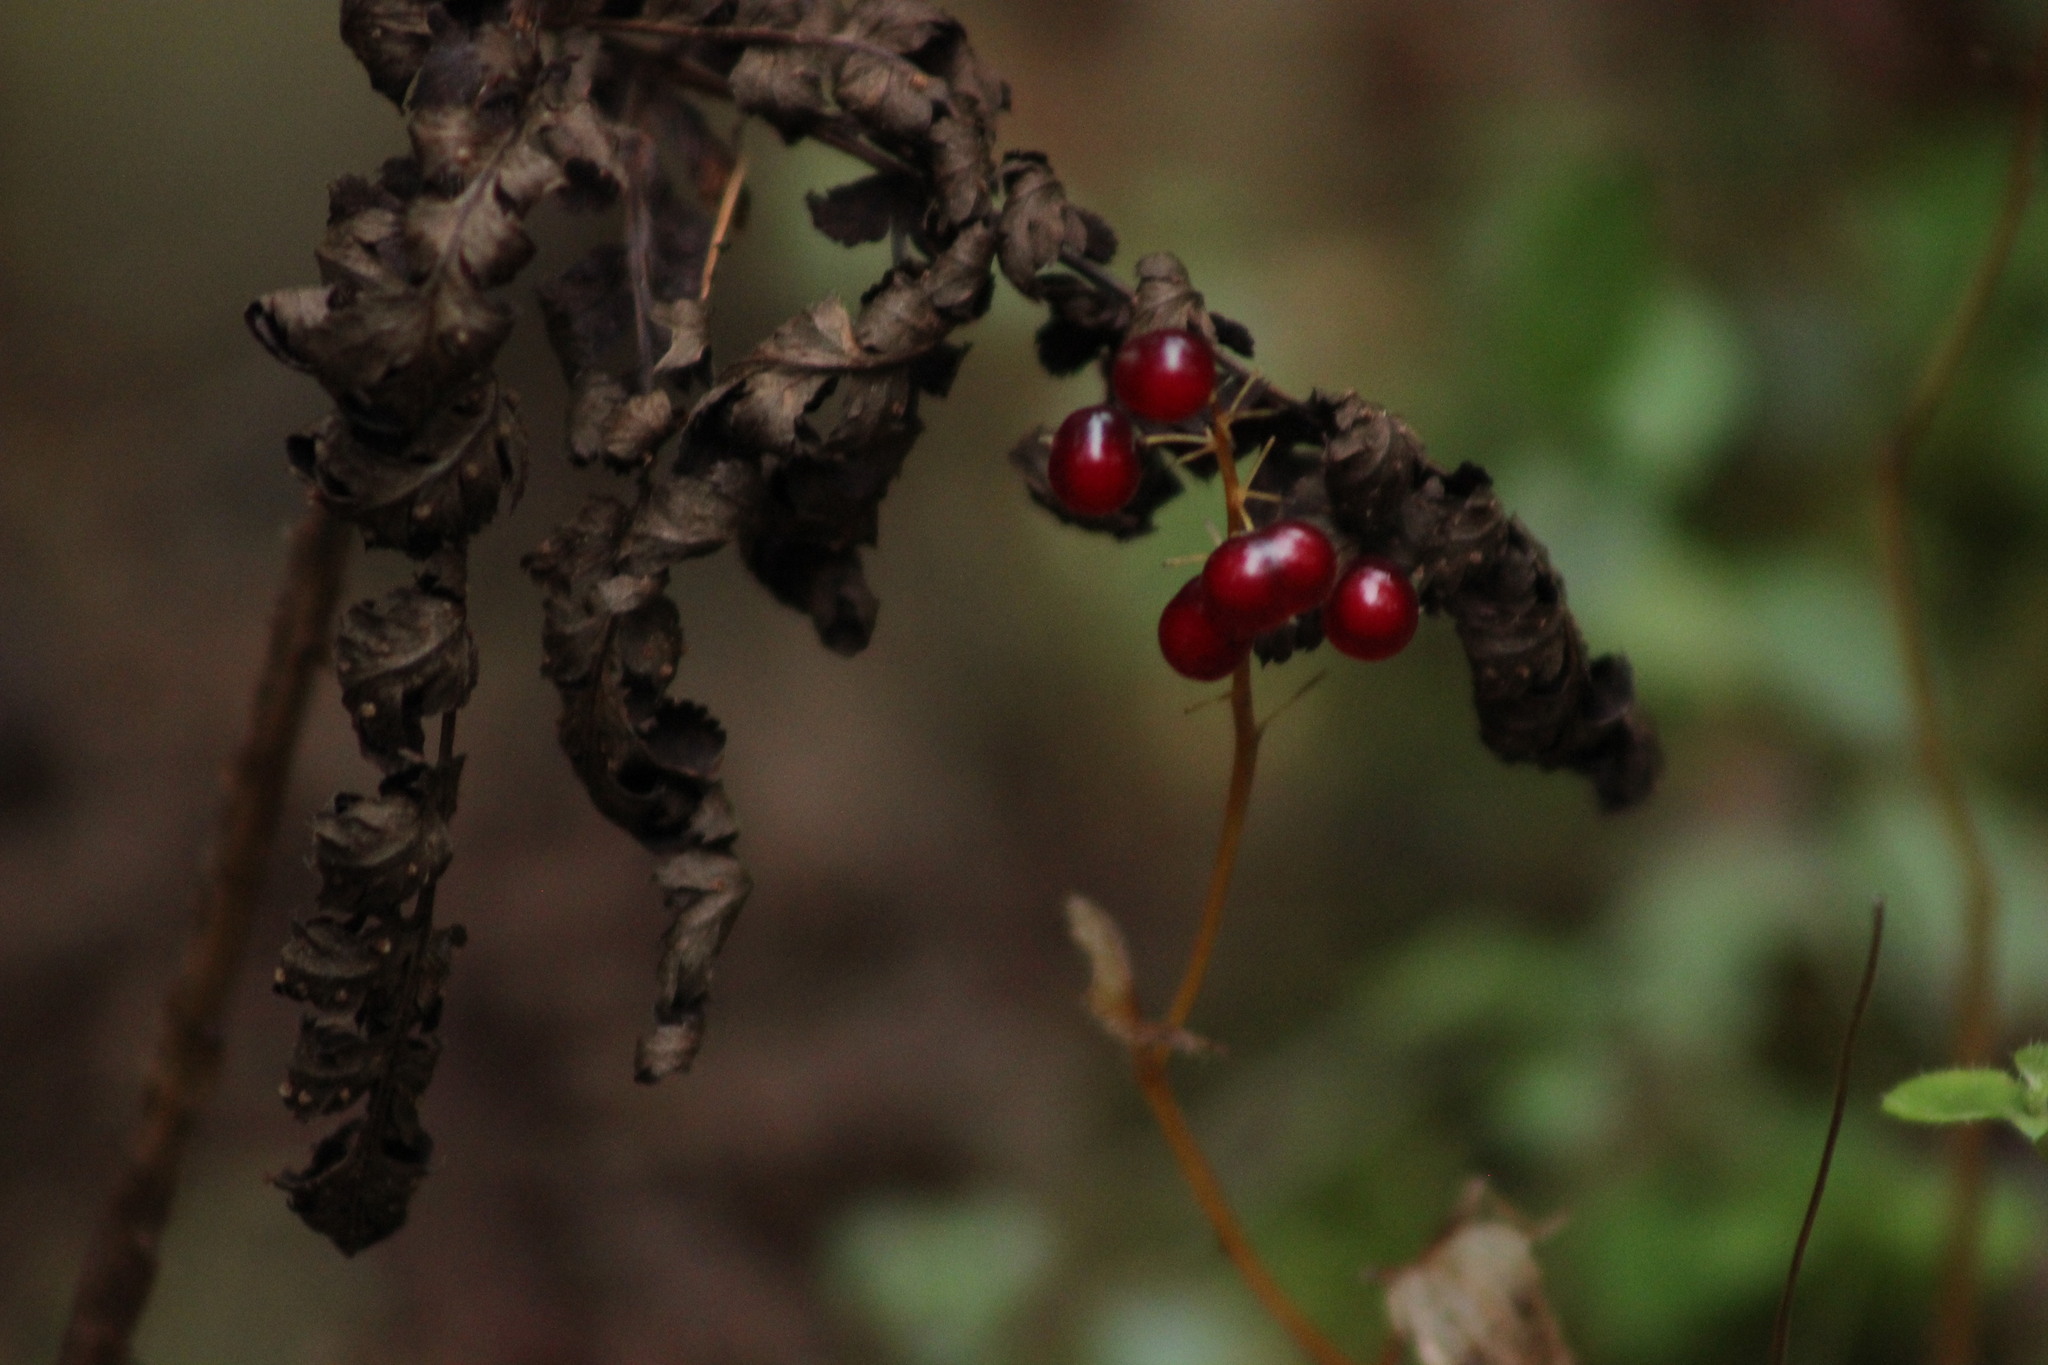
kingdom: Plantae
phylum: Tracheophyta
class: Liliopsida
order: Asparagales
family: Asparagaceae
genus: Maianthemum
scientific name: Maianthemum bifolium
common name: May lily
